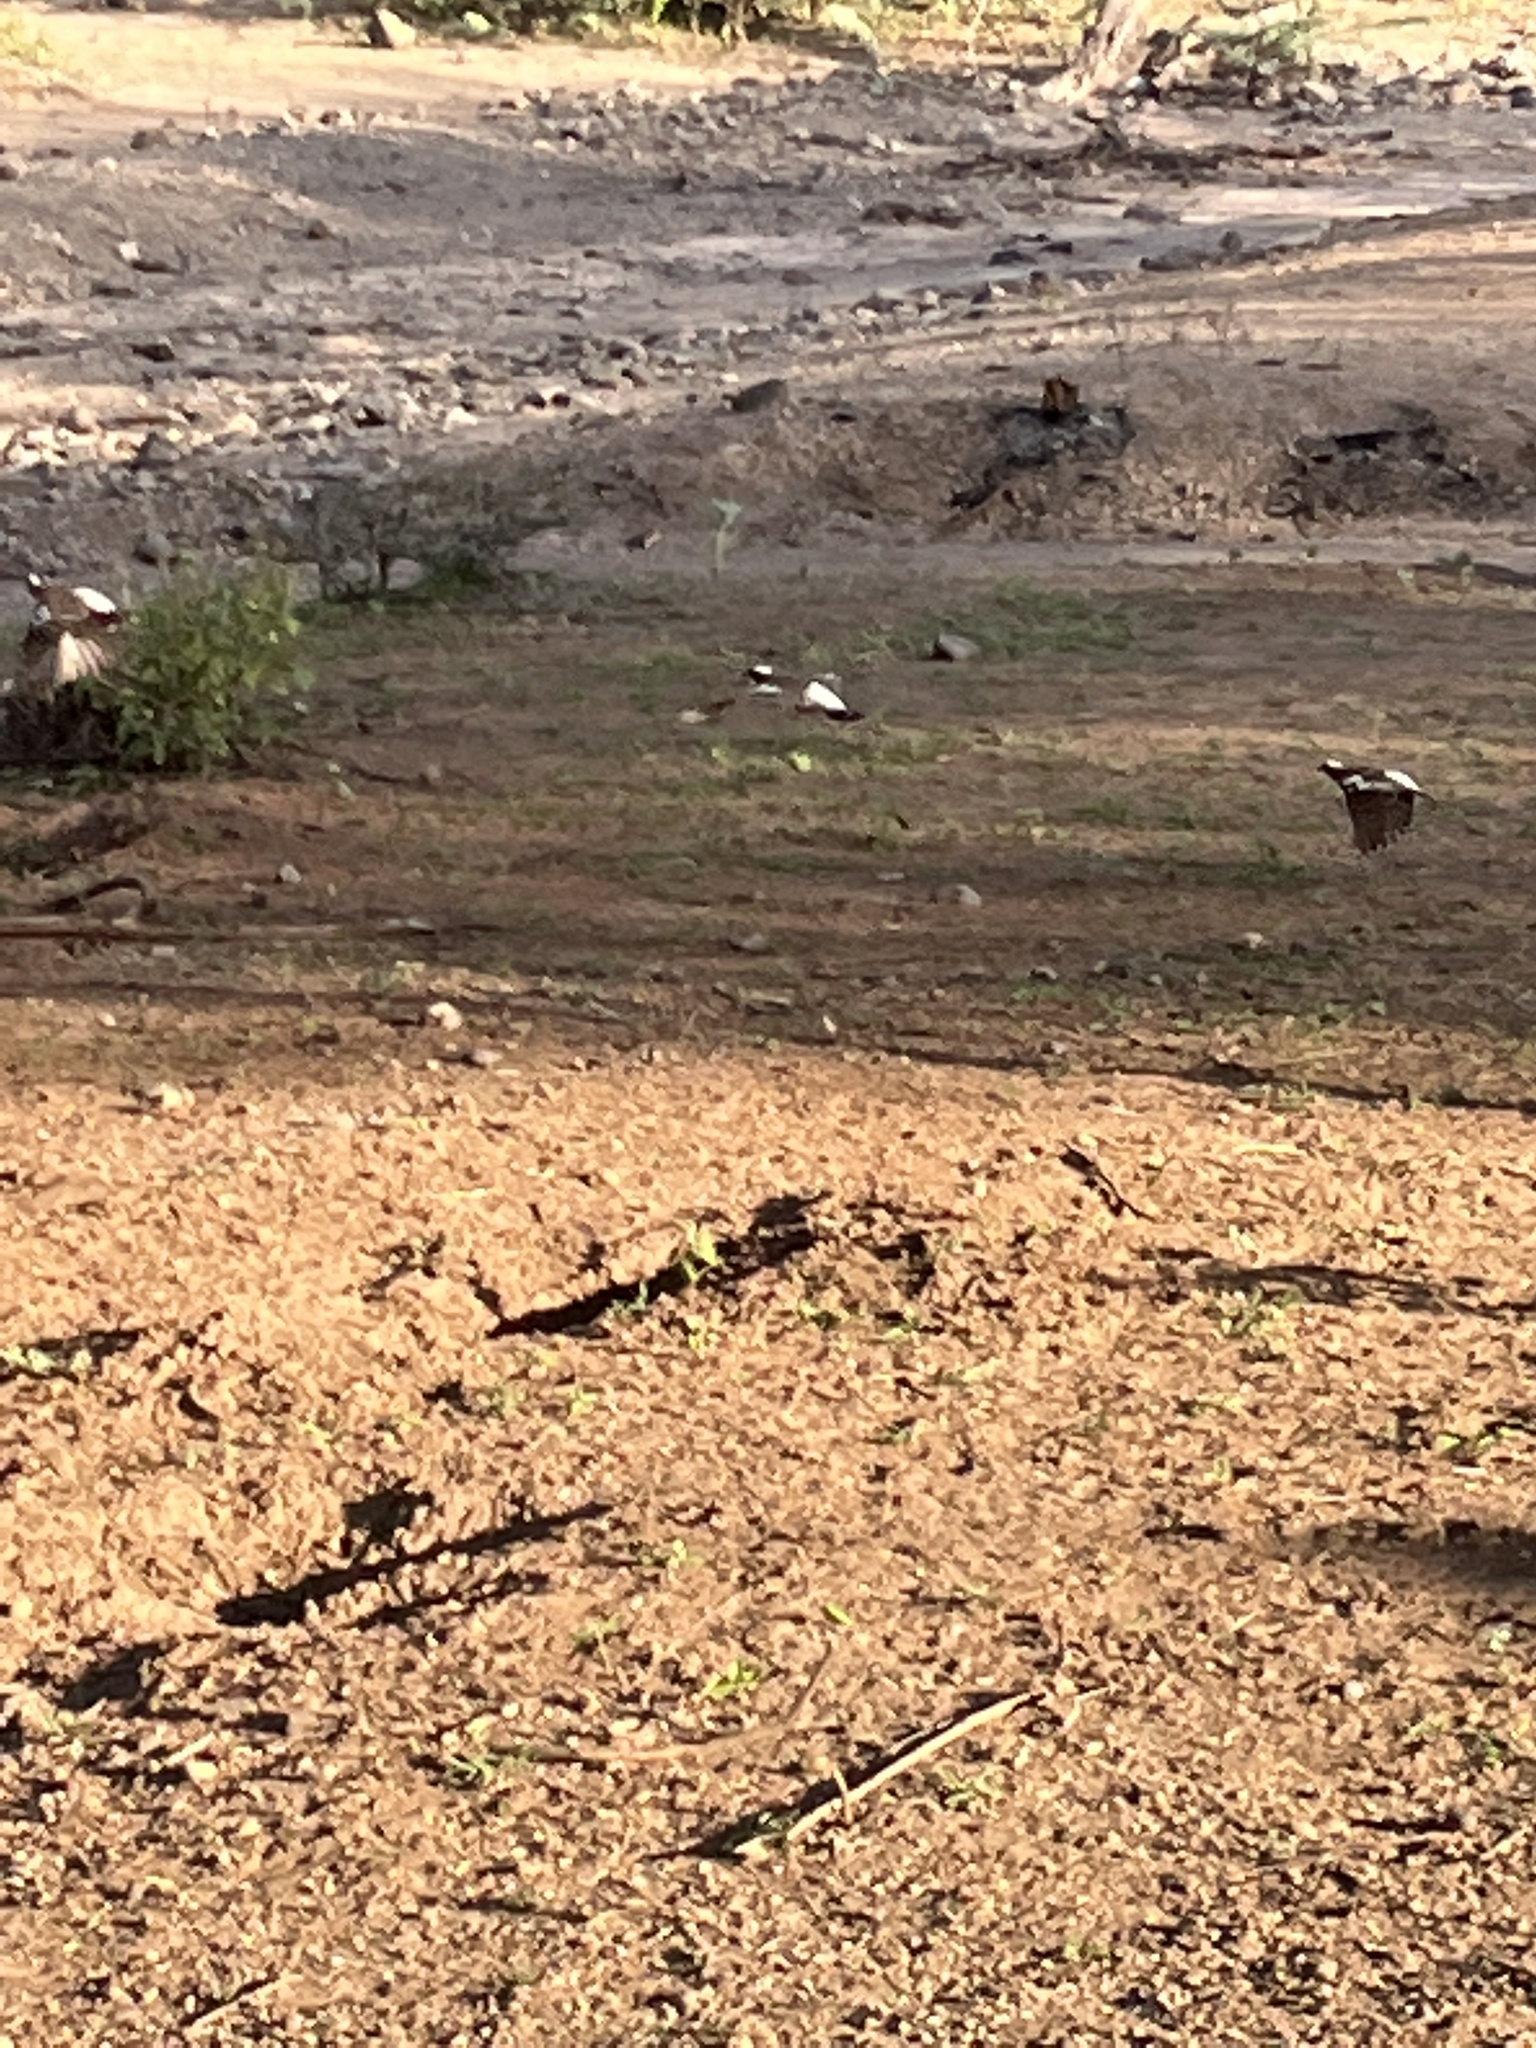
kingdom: Animalia
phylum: Chordata
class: Aves
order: Passeriformes
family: Passeridae
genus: Plocepasser
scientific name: Plocepasser mahali
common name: White-browed sparrow-weaver
